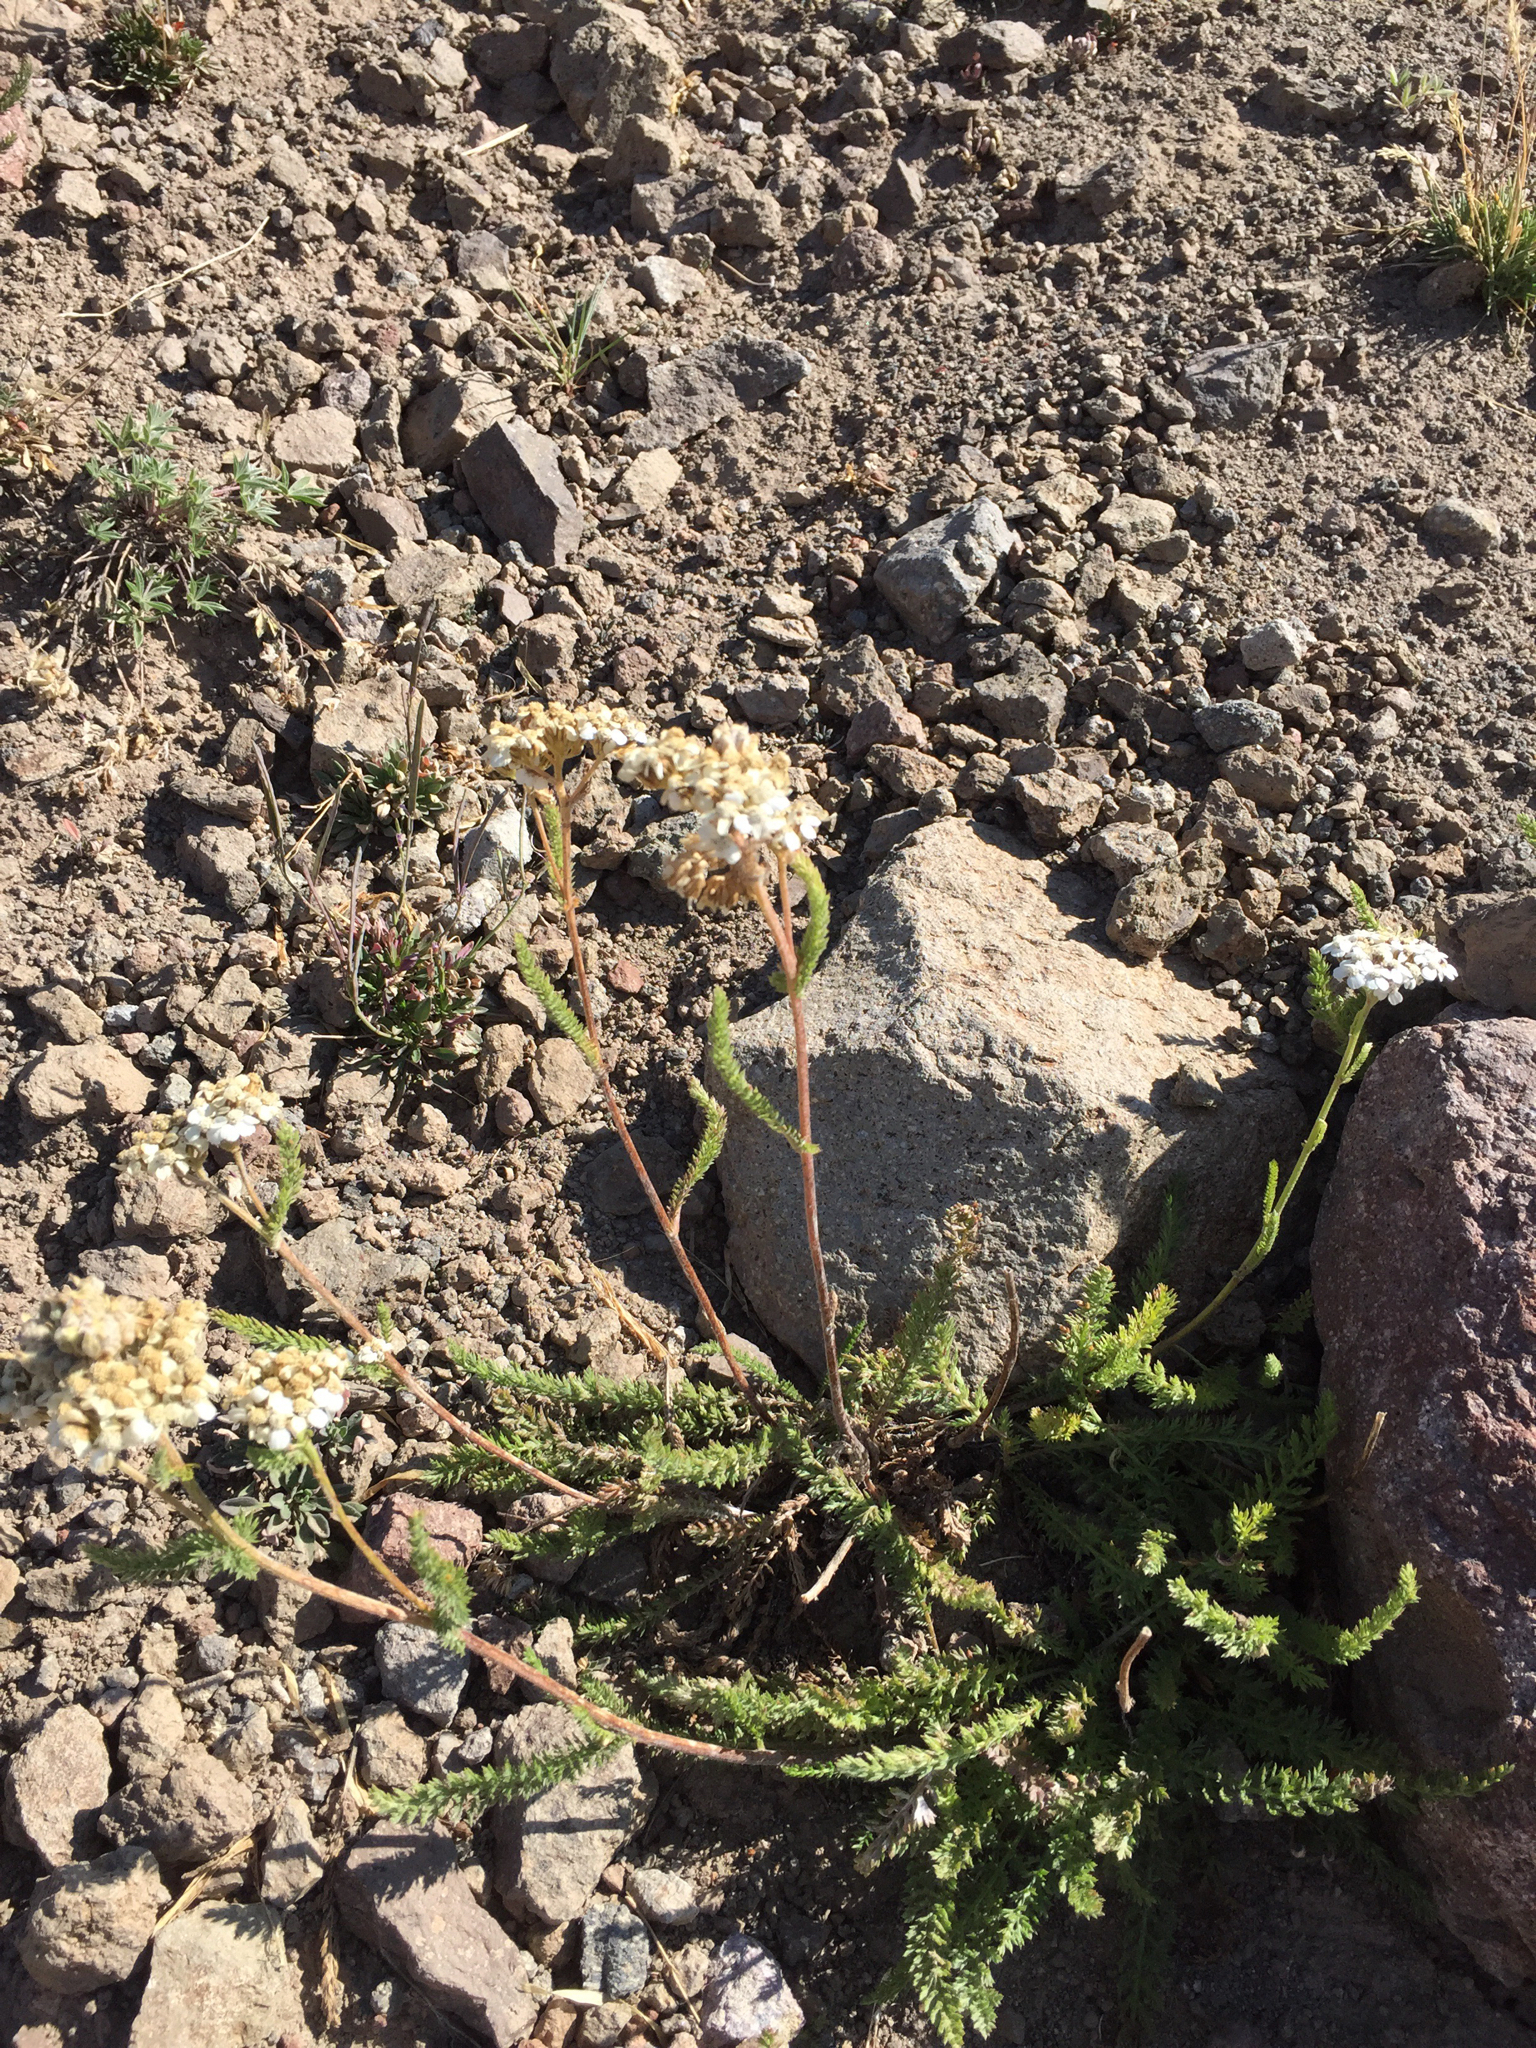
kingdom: Plantae
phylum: Tracheophyta
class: Magnoliopsida
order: Asterales
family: Asteraceae
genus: Achillea
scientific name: Achillea millefolium
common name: Yarrow
